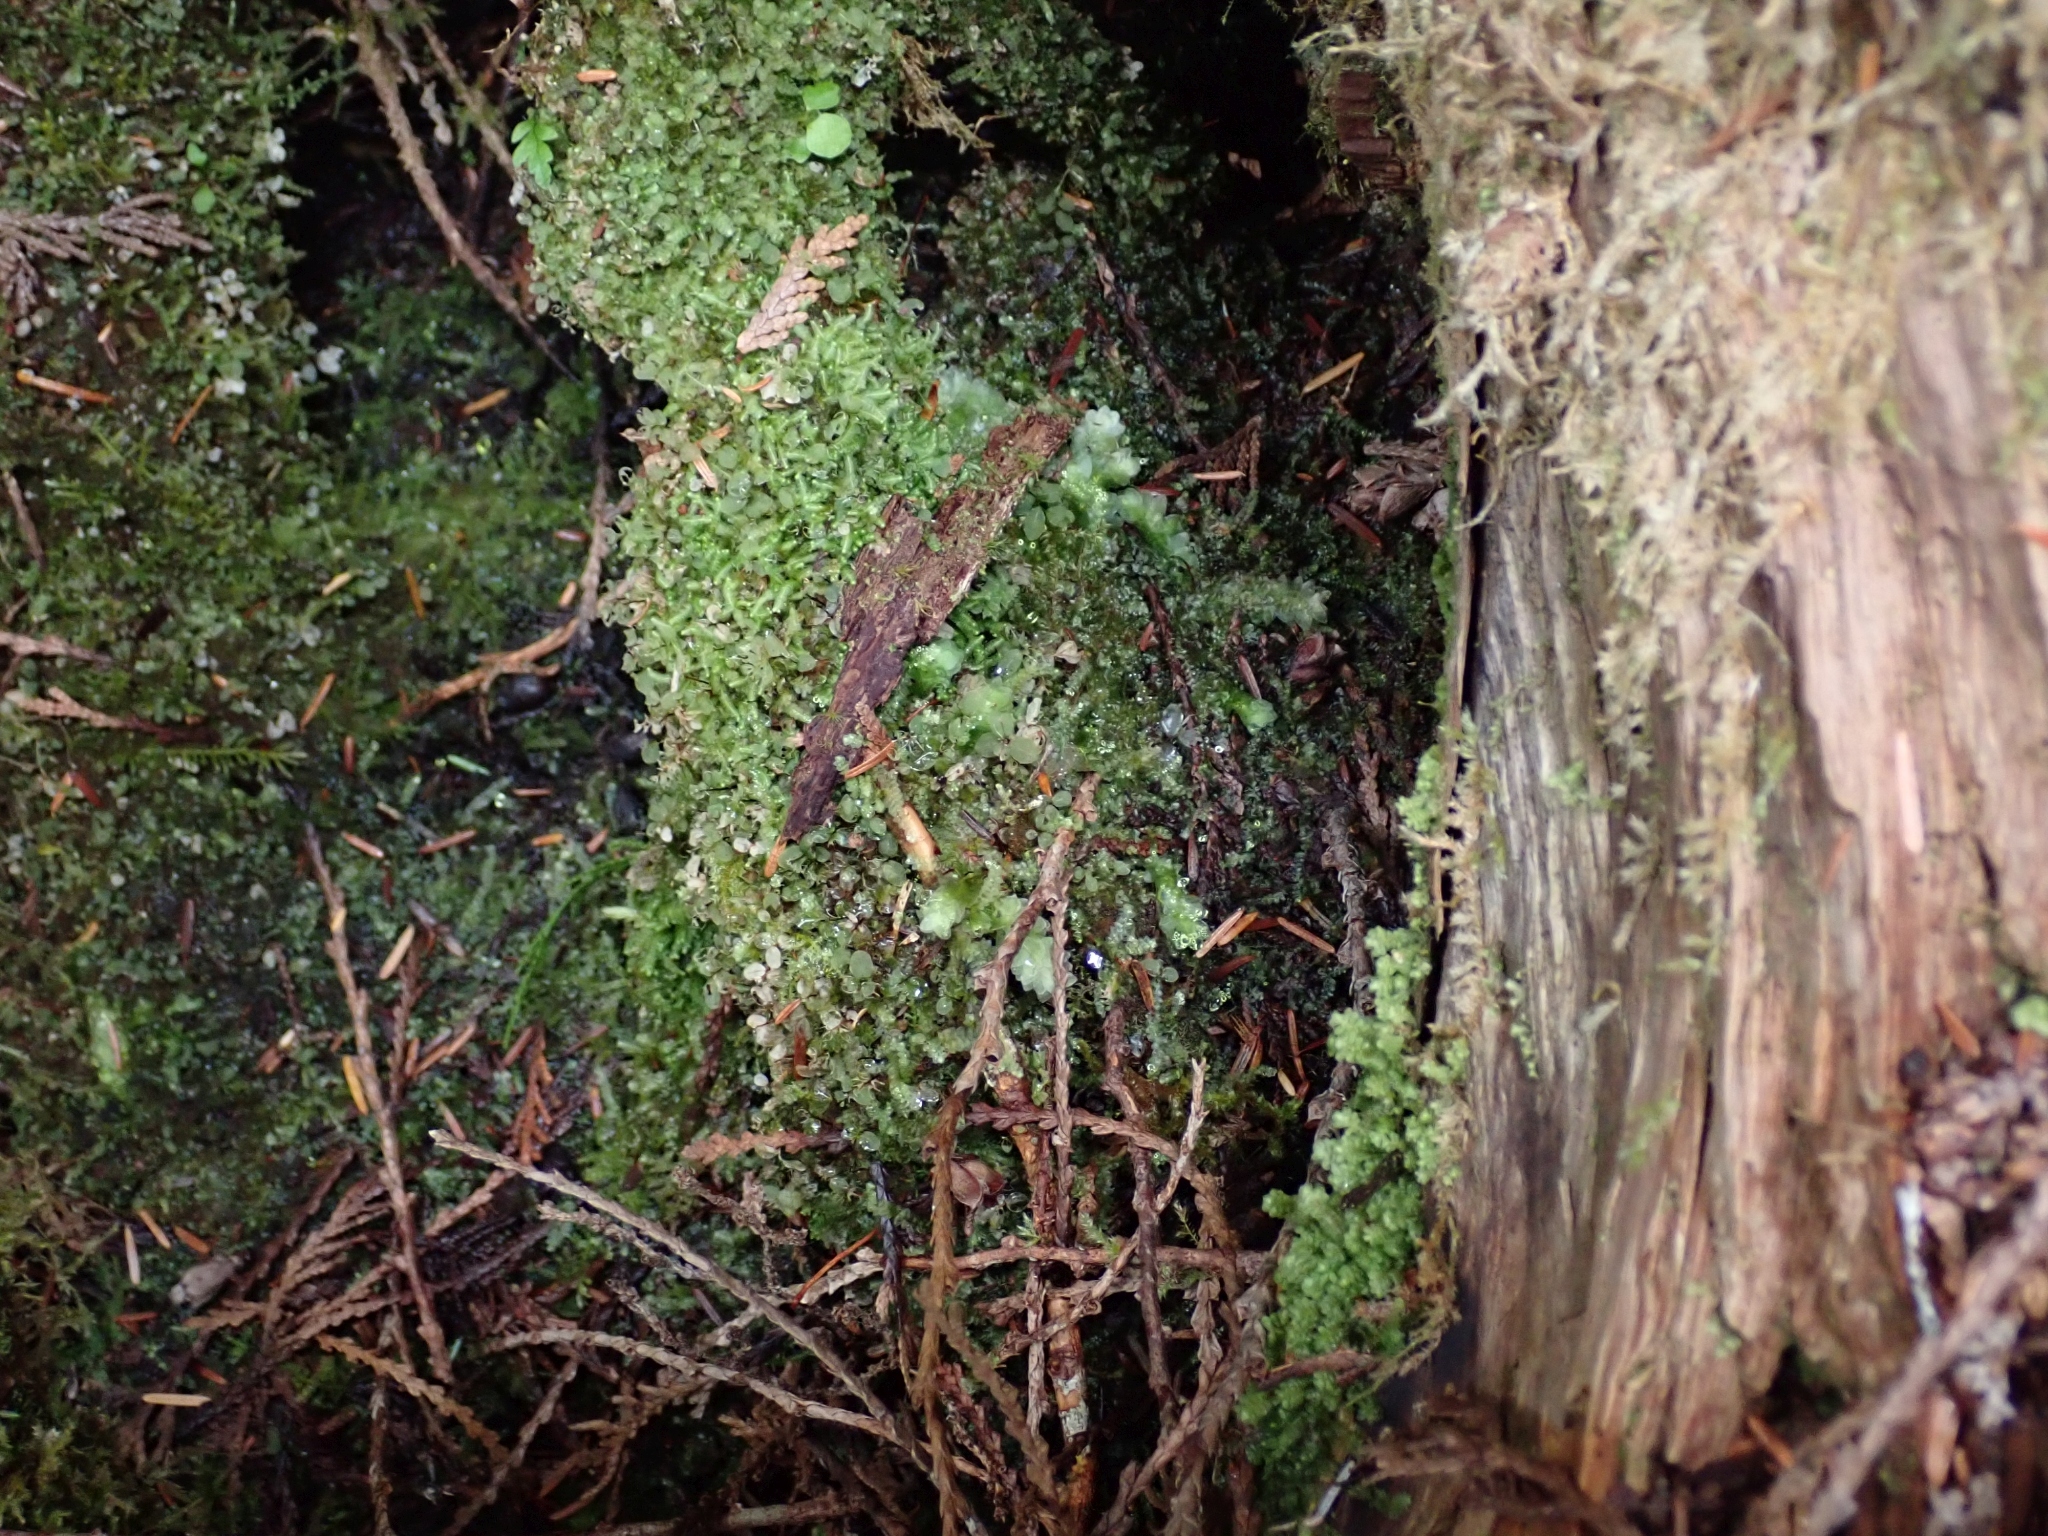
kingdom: Plantae
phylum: Bryophyta
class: Bryopsida
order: Hookeriales
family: Hookeriaceae
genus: Hookeria
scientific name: Hookeria lucens
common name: Shining hookeria
